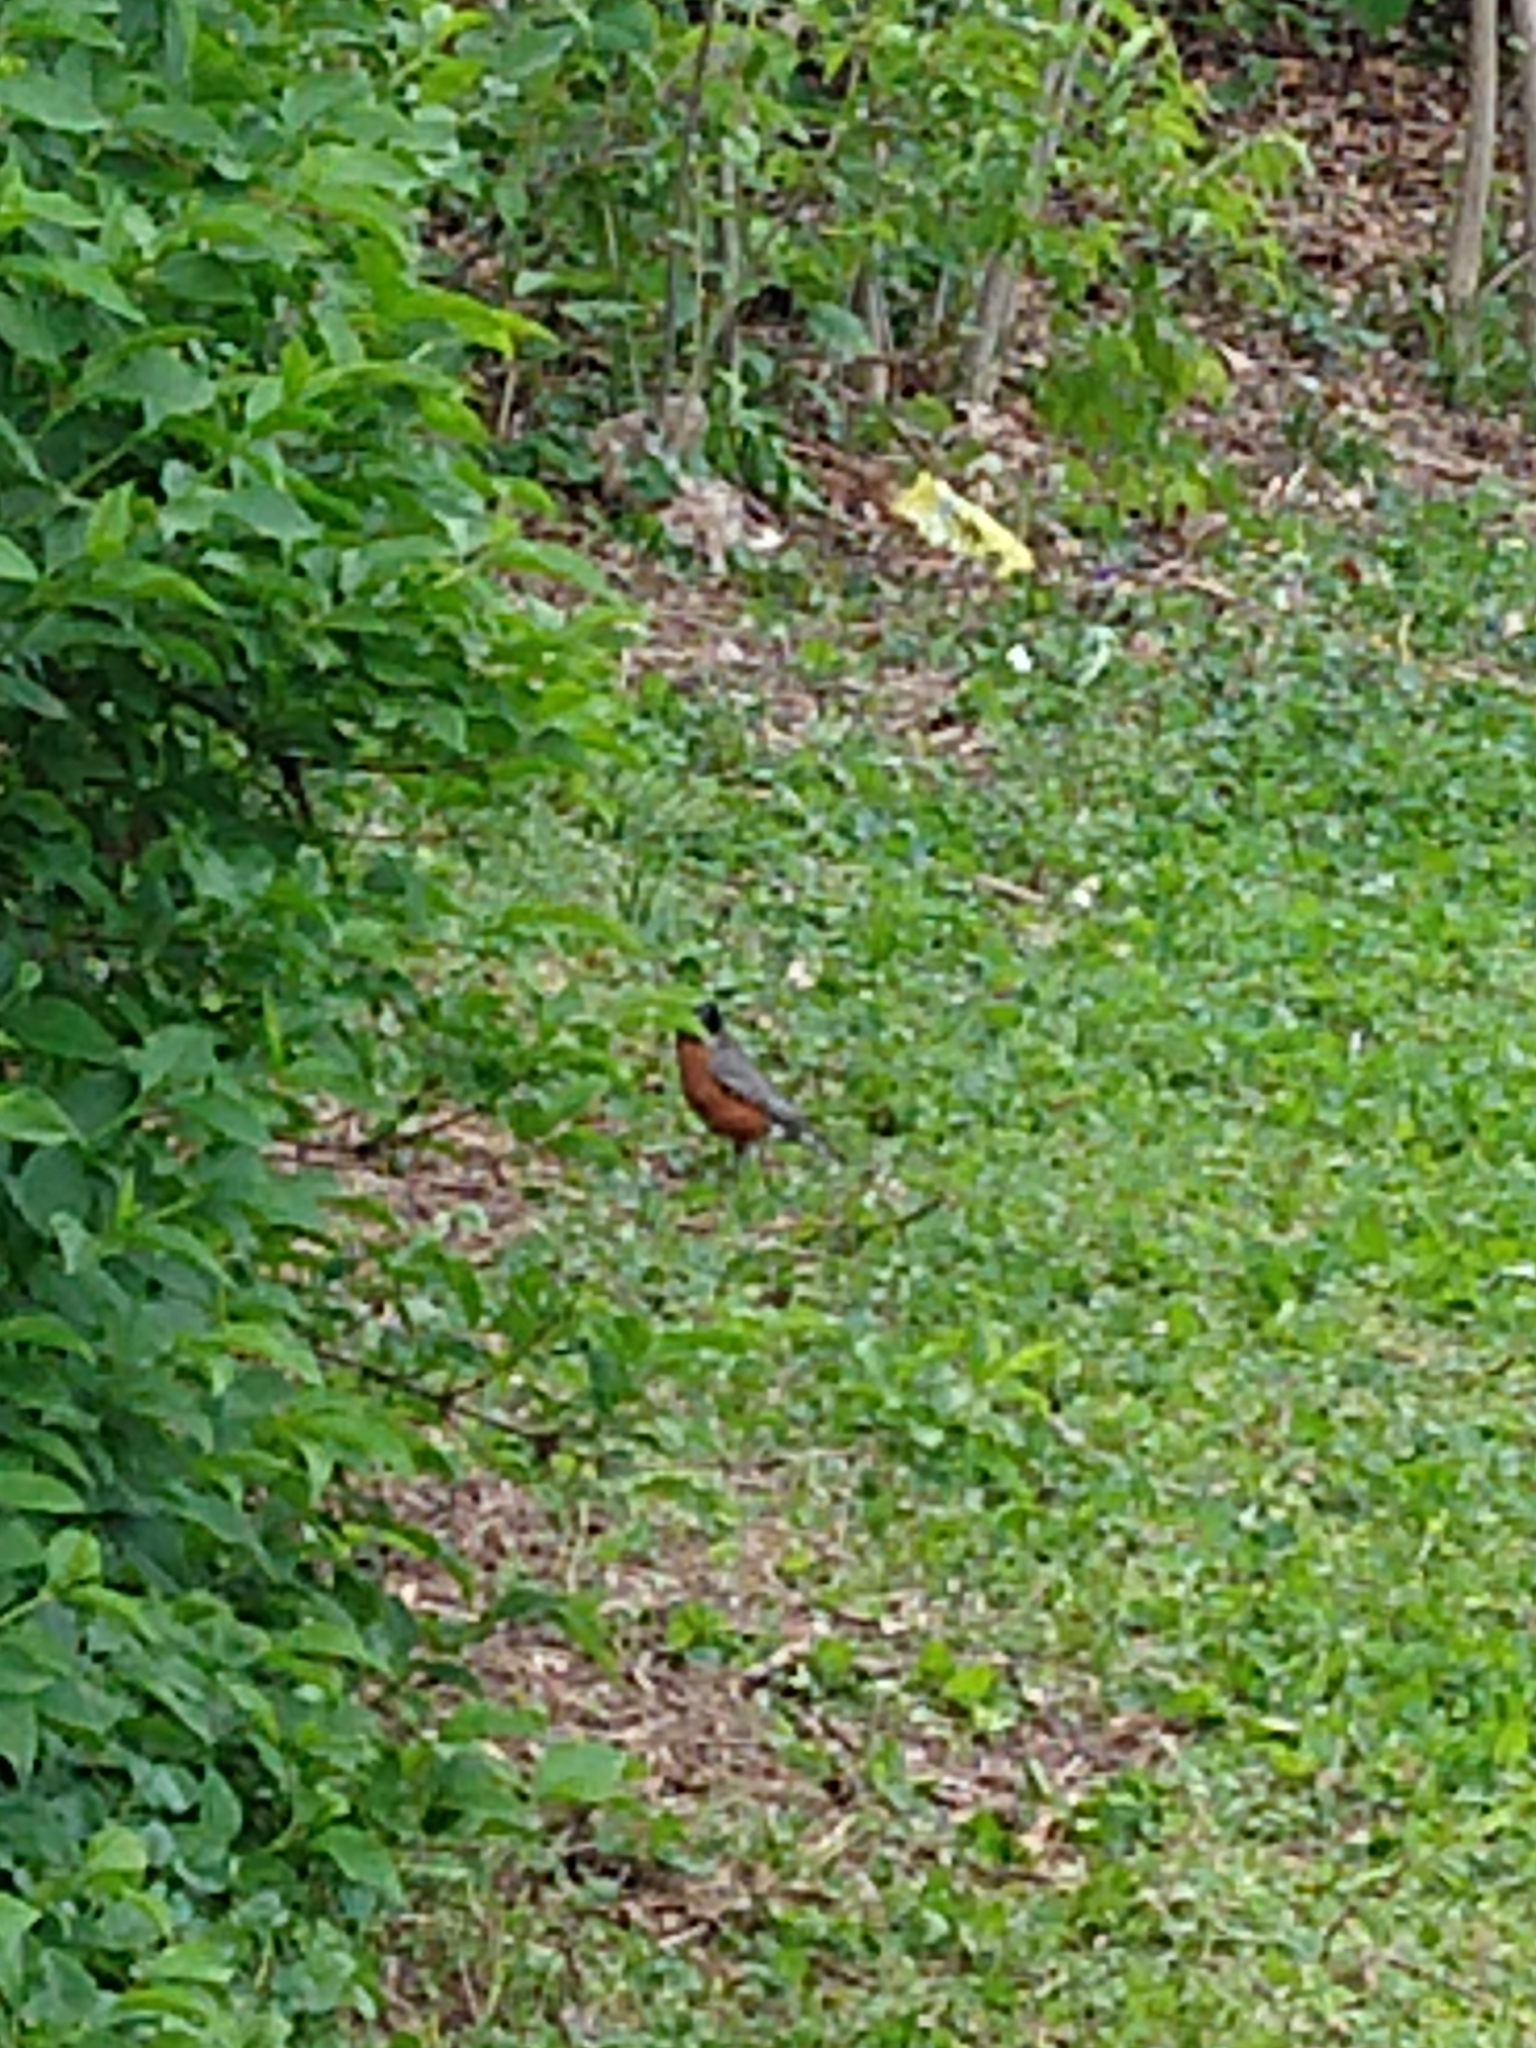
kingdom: Animalia
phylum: Chordata
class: Aves
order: Passeriformes
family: Turdidae
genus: Turdus
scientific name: Turdus migratorius
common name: American robin
